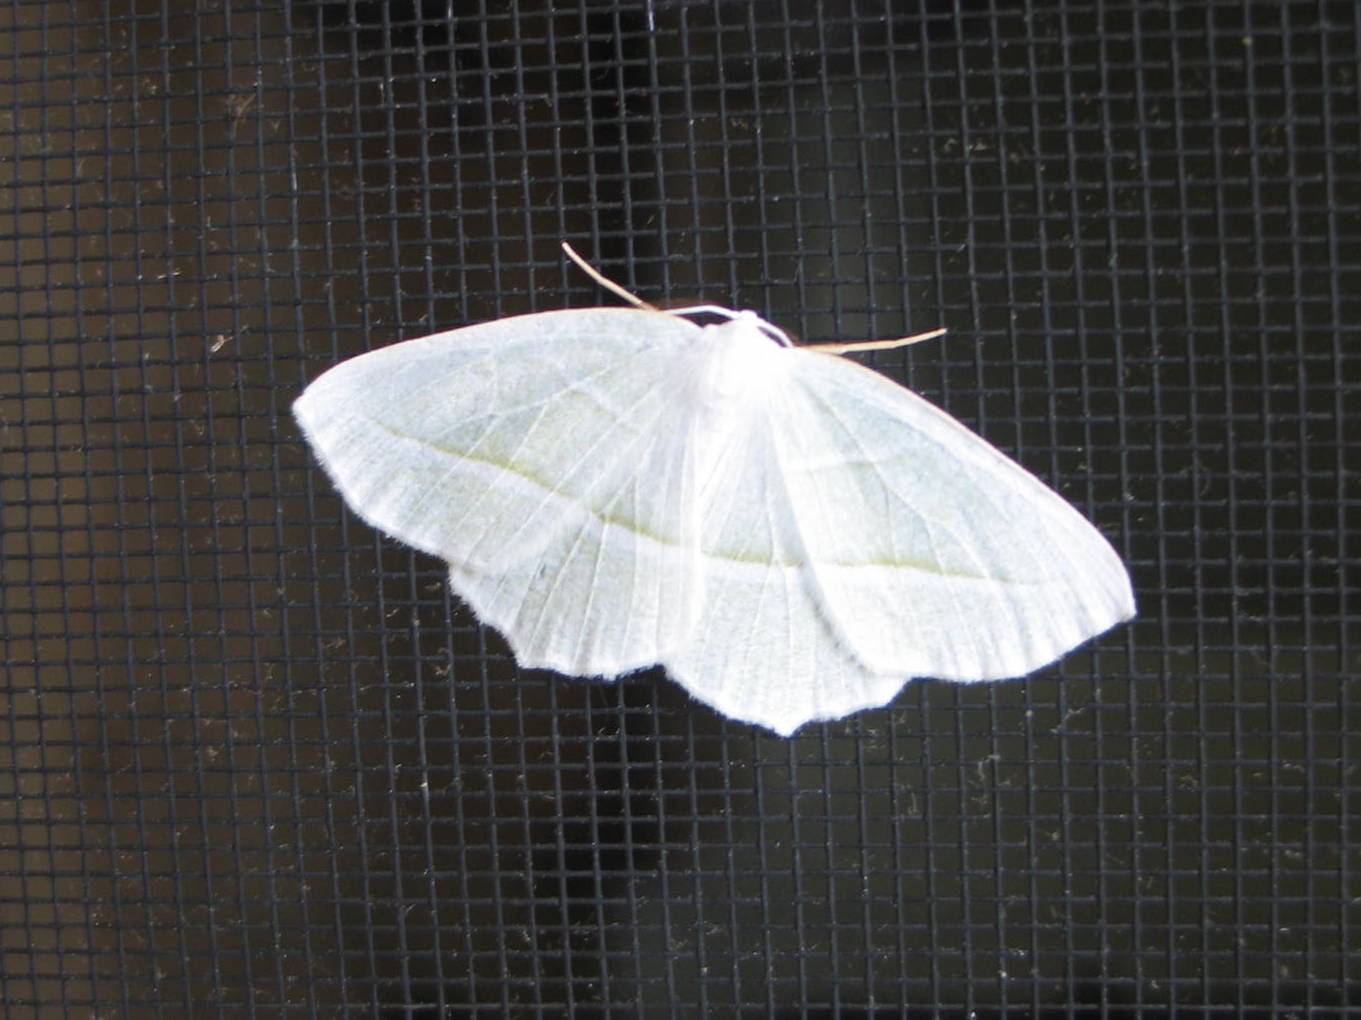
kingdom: Animalia
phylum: Arthropoda
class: Insecta
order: Lepidoptera
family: Geometridae
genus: Campaea
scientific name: Campaea perlata
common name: Fringed looper
